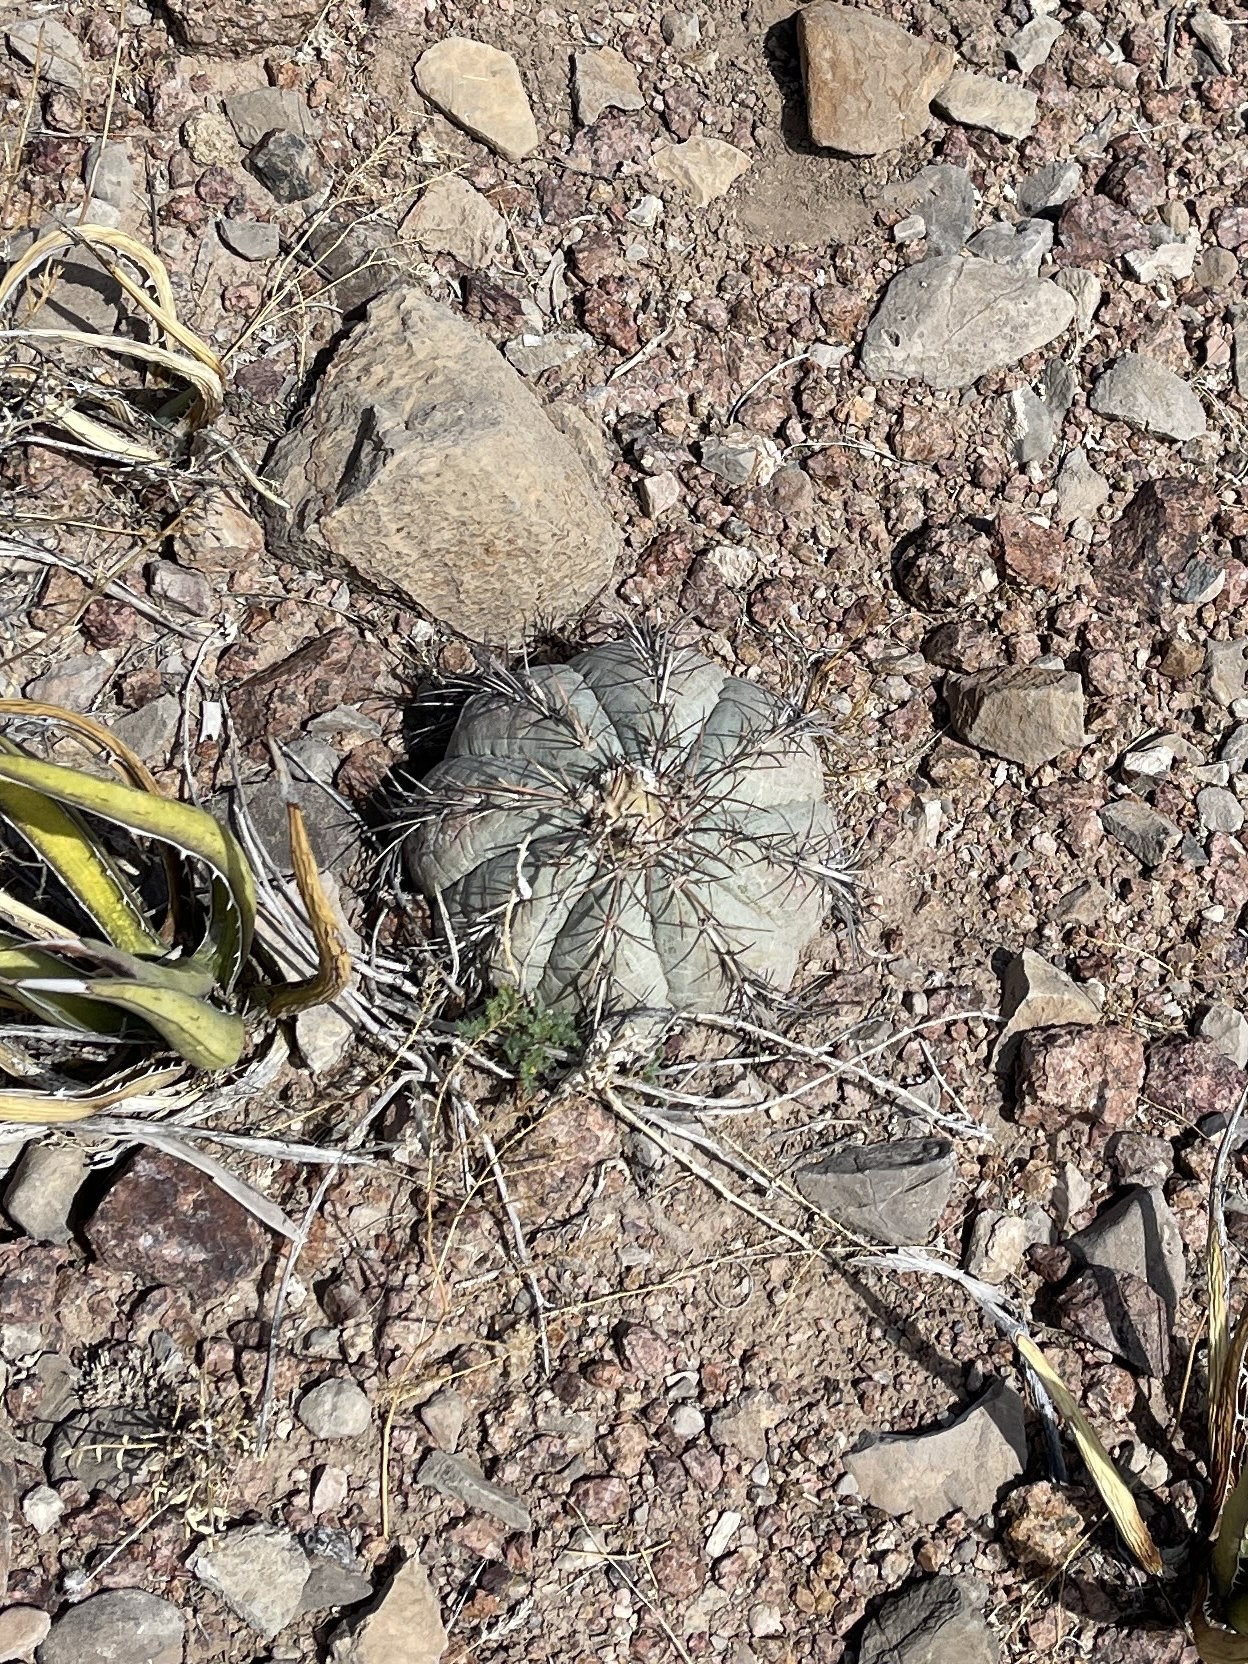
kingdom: Plantae
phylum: Tracheophyta
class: Magnoliopsida
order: Caryophyllales
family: Cactaceae
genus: Echinocactus
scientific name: Echinocactus horizonthalonius
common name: Devilshead
